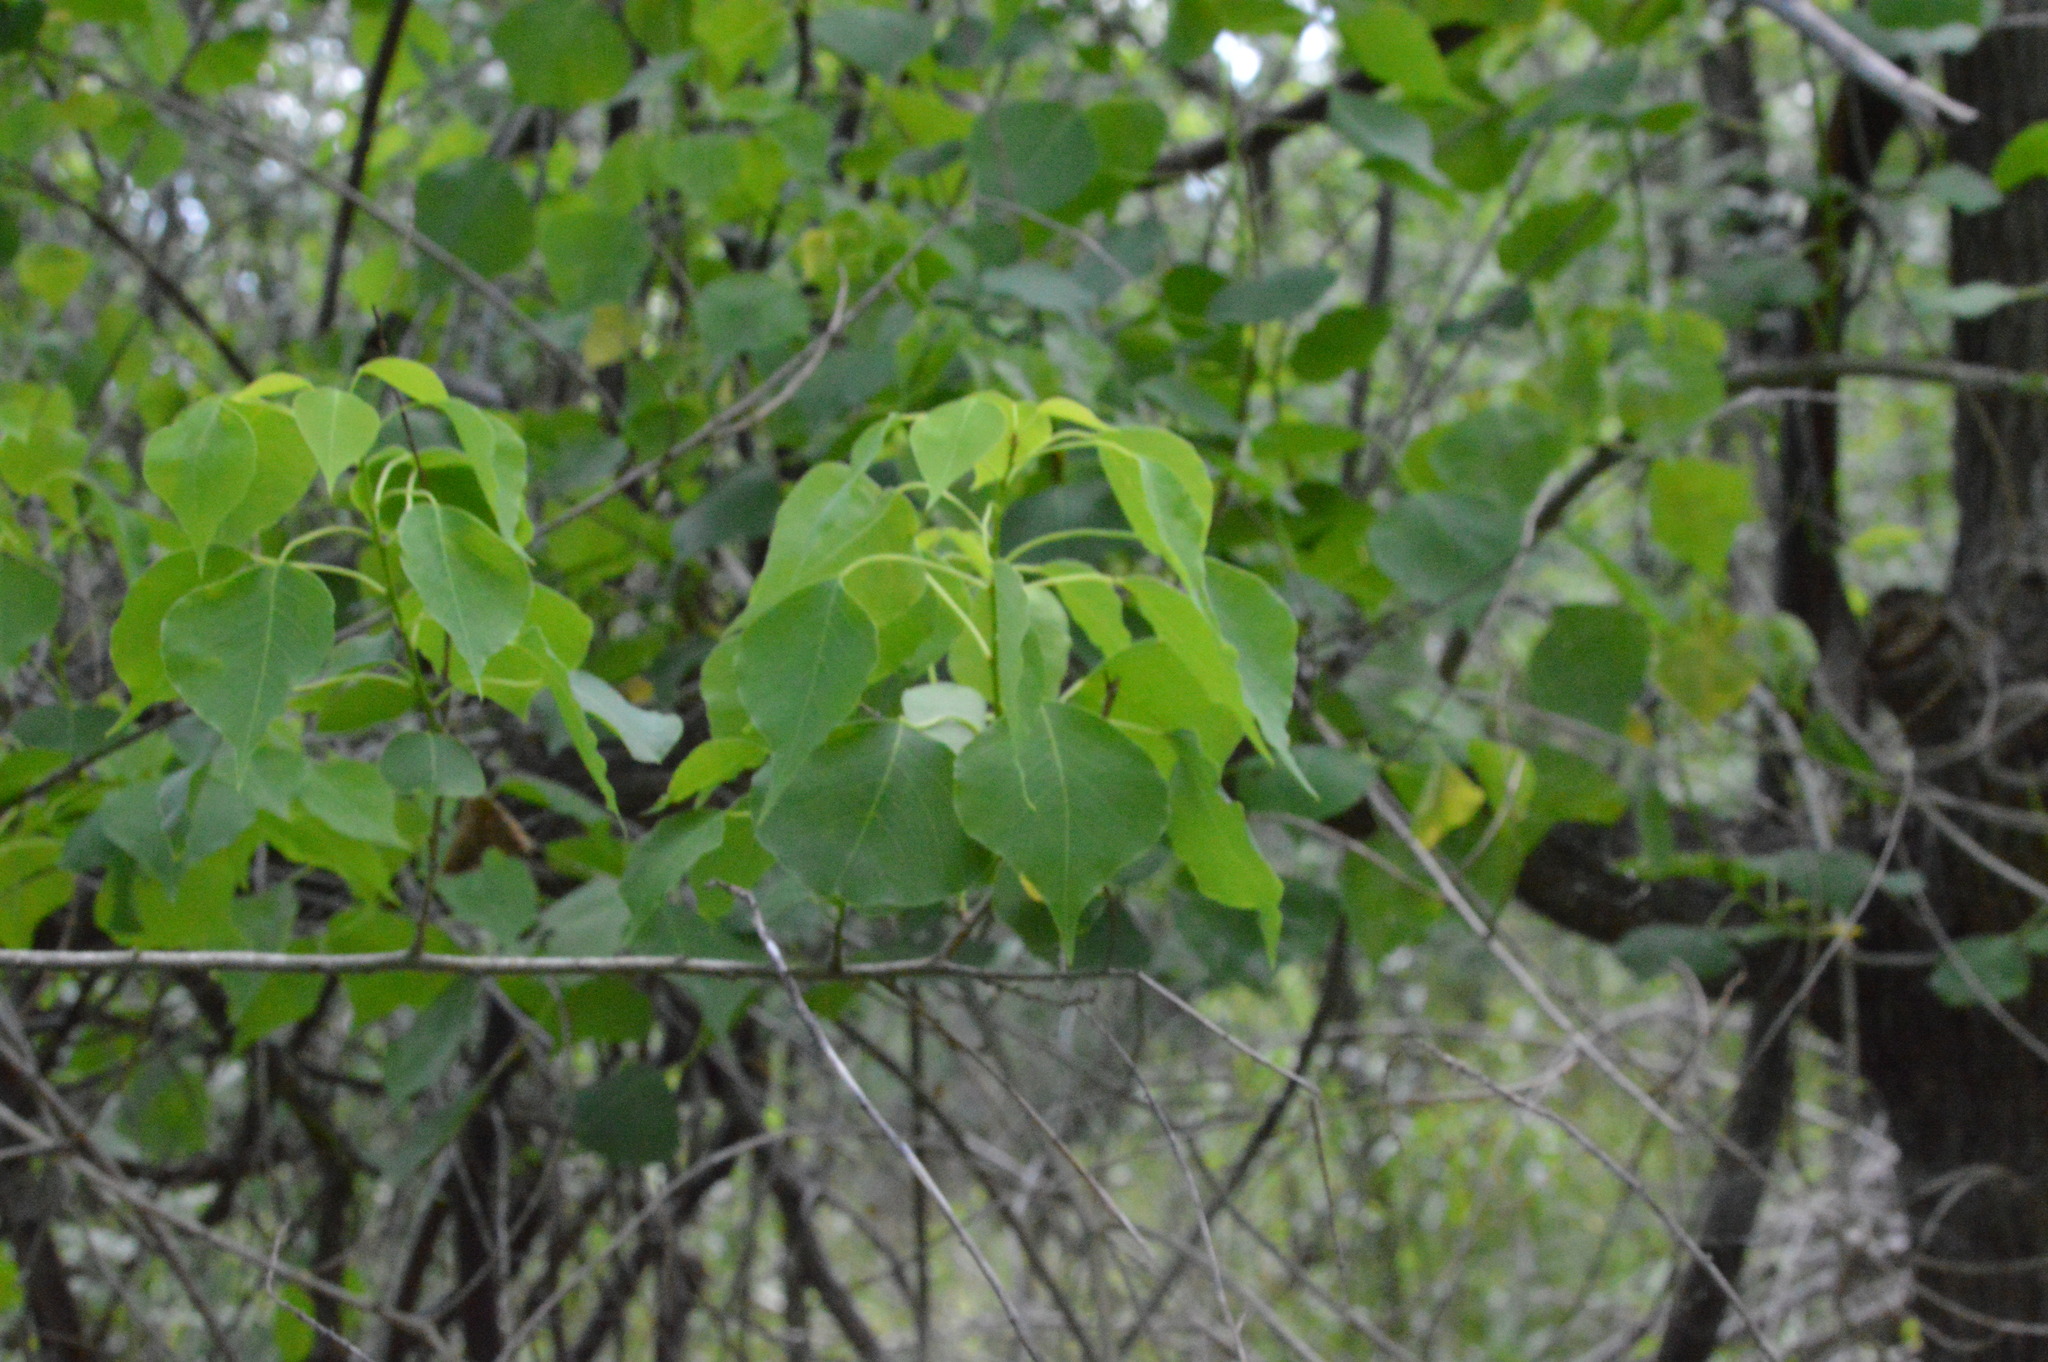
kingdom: Plantae
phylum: Tracheophyta
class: Magnoliopsida
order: Malpighiales
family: Euphorbiaceae
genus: Triadica
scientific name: Triadica sebifera
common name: Chinese tallow
